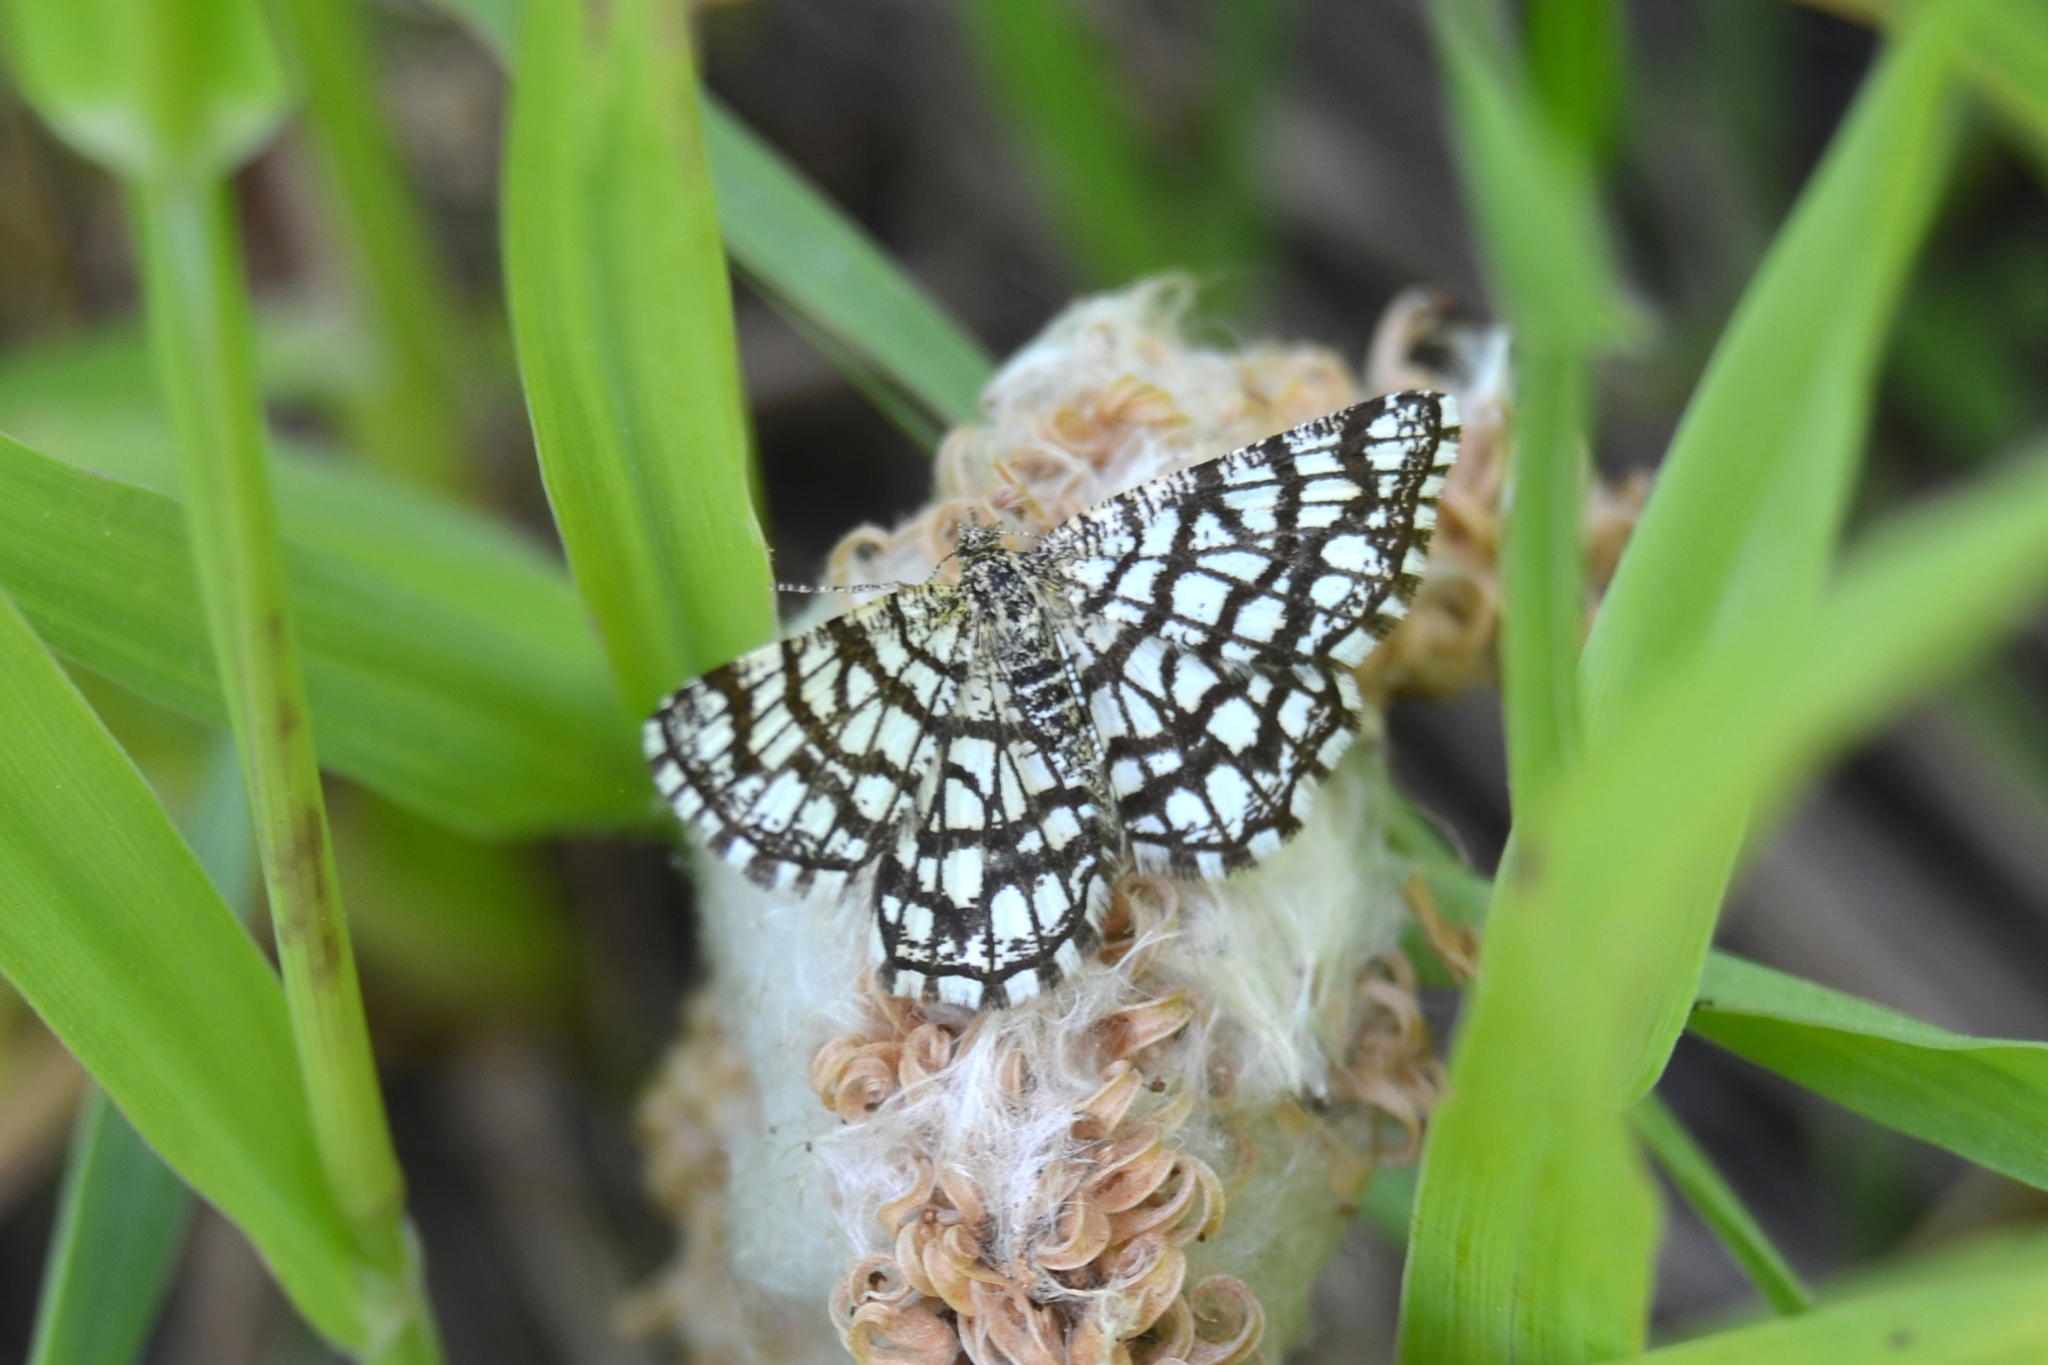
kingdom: Animalia
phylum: Arthropoda
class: Insecta
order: Lepidoptera
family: Geometridae
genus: Chiasmia
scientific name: Chiasmia clathrata
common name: Latticed heath
